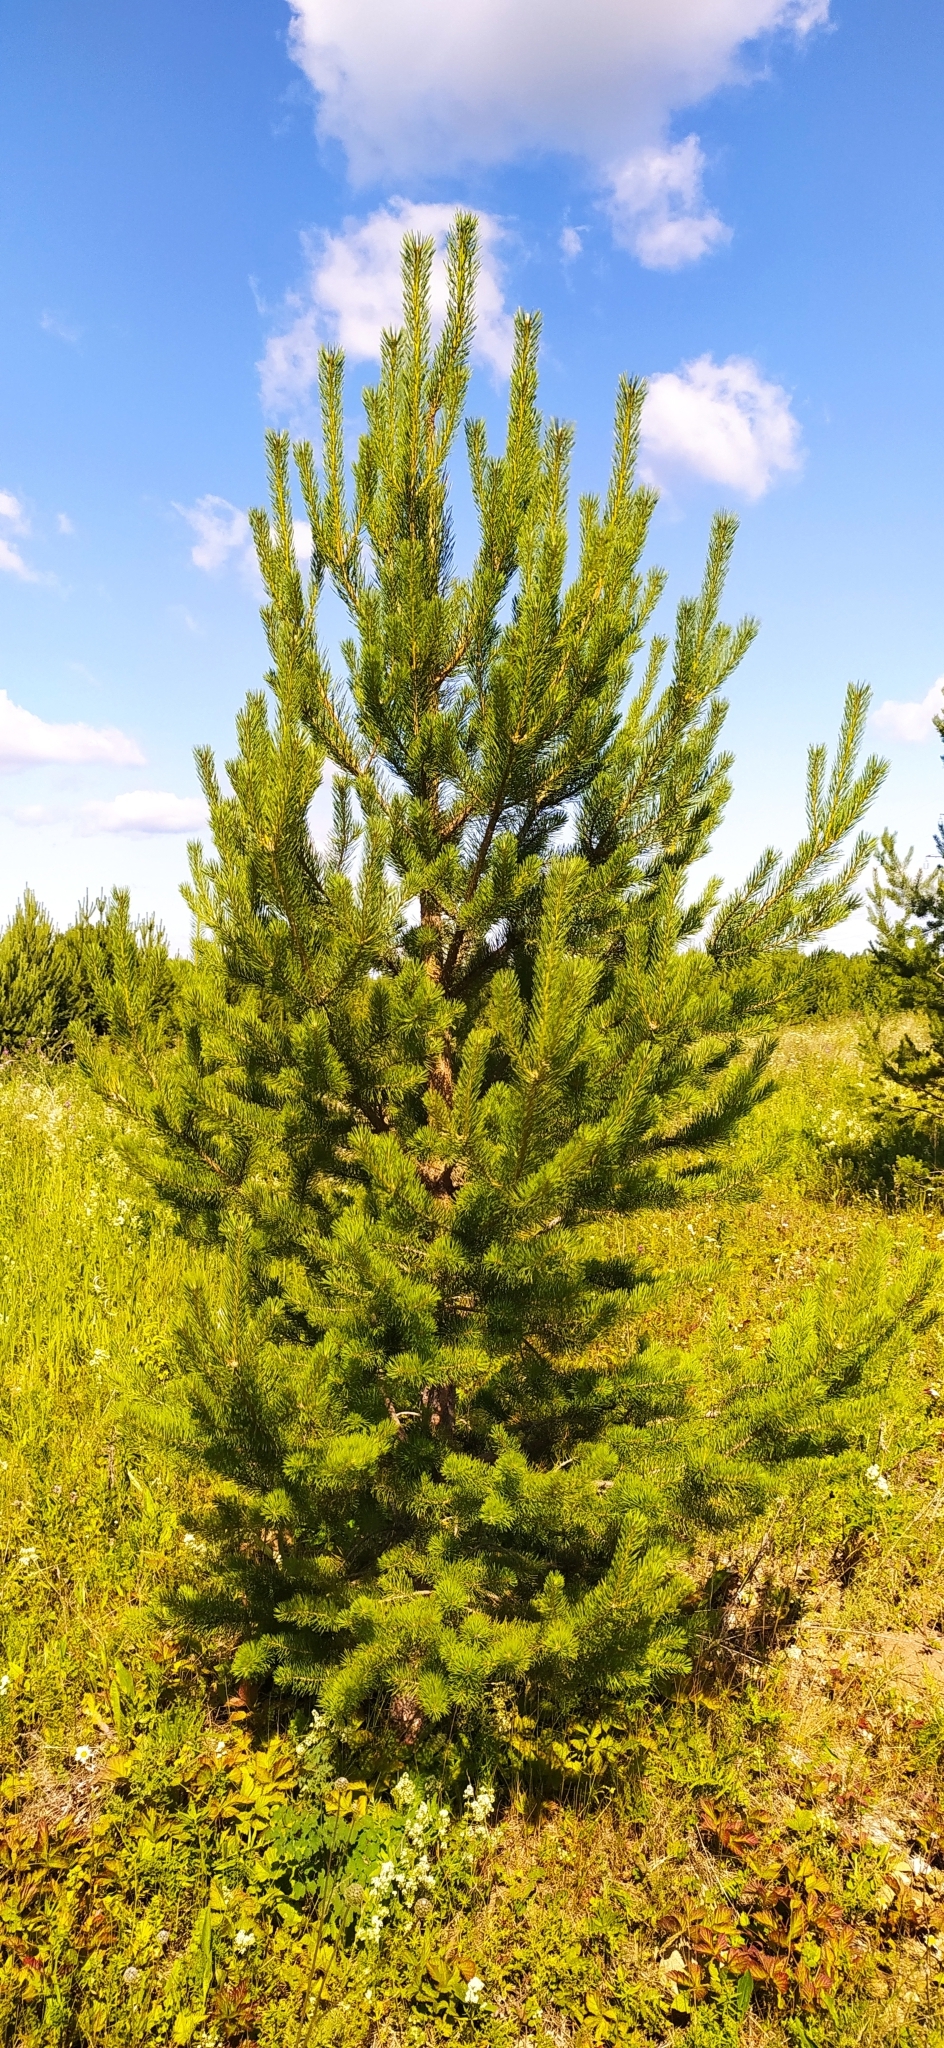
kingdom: Plantae
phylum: Tracheophyta
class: Pinopsida
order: Pinales
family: Pinaceae
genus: Pinus
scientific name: Pinus sylvestris
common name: Scots pine
